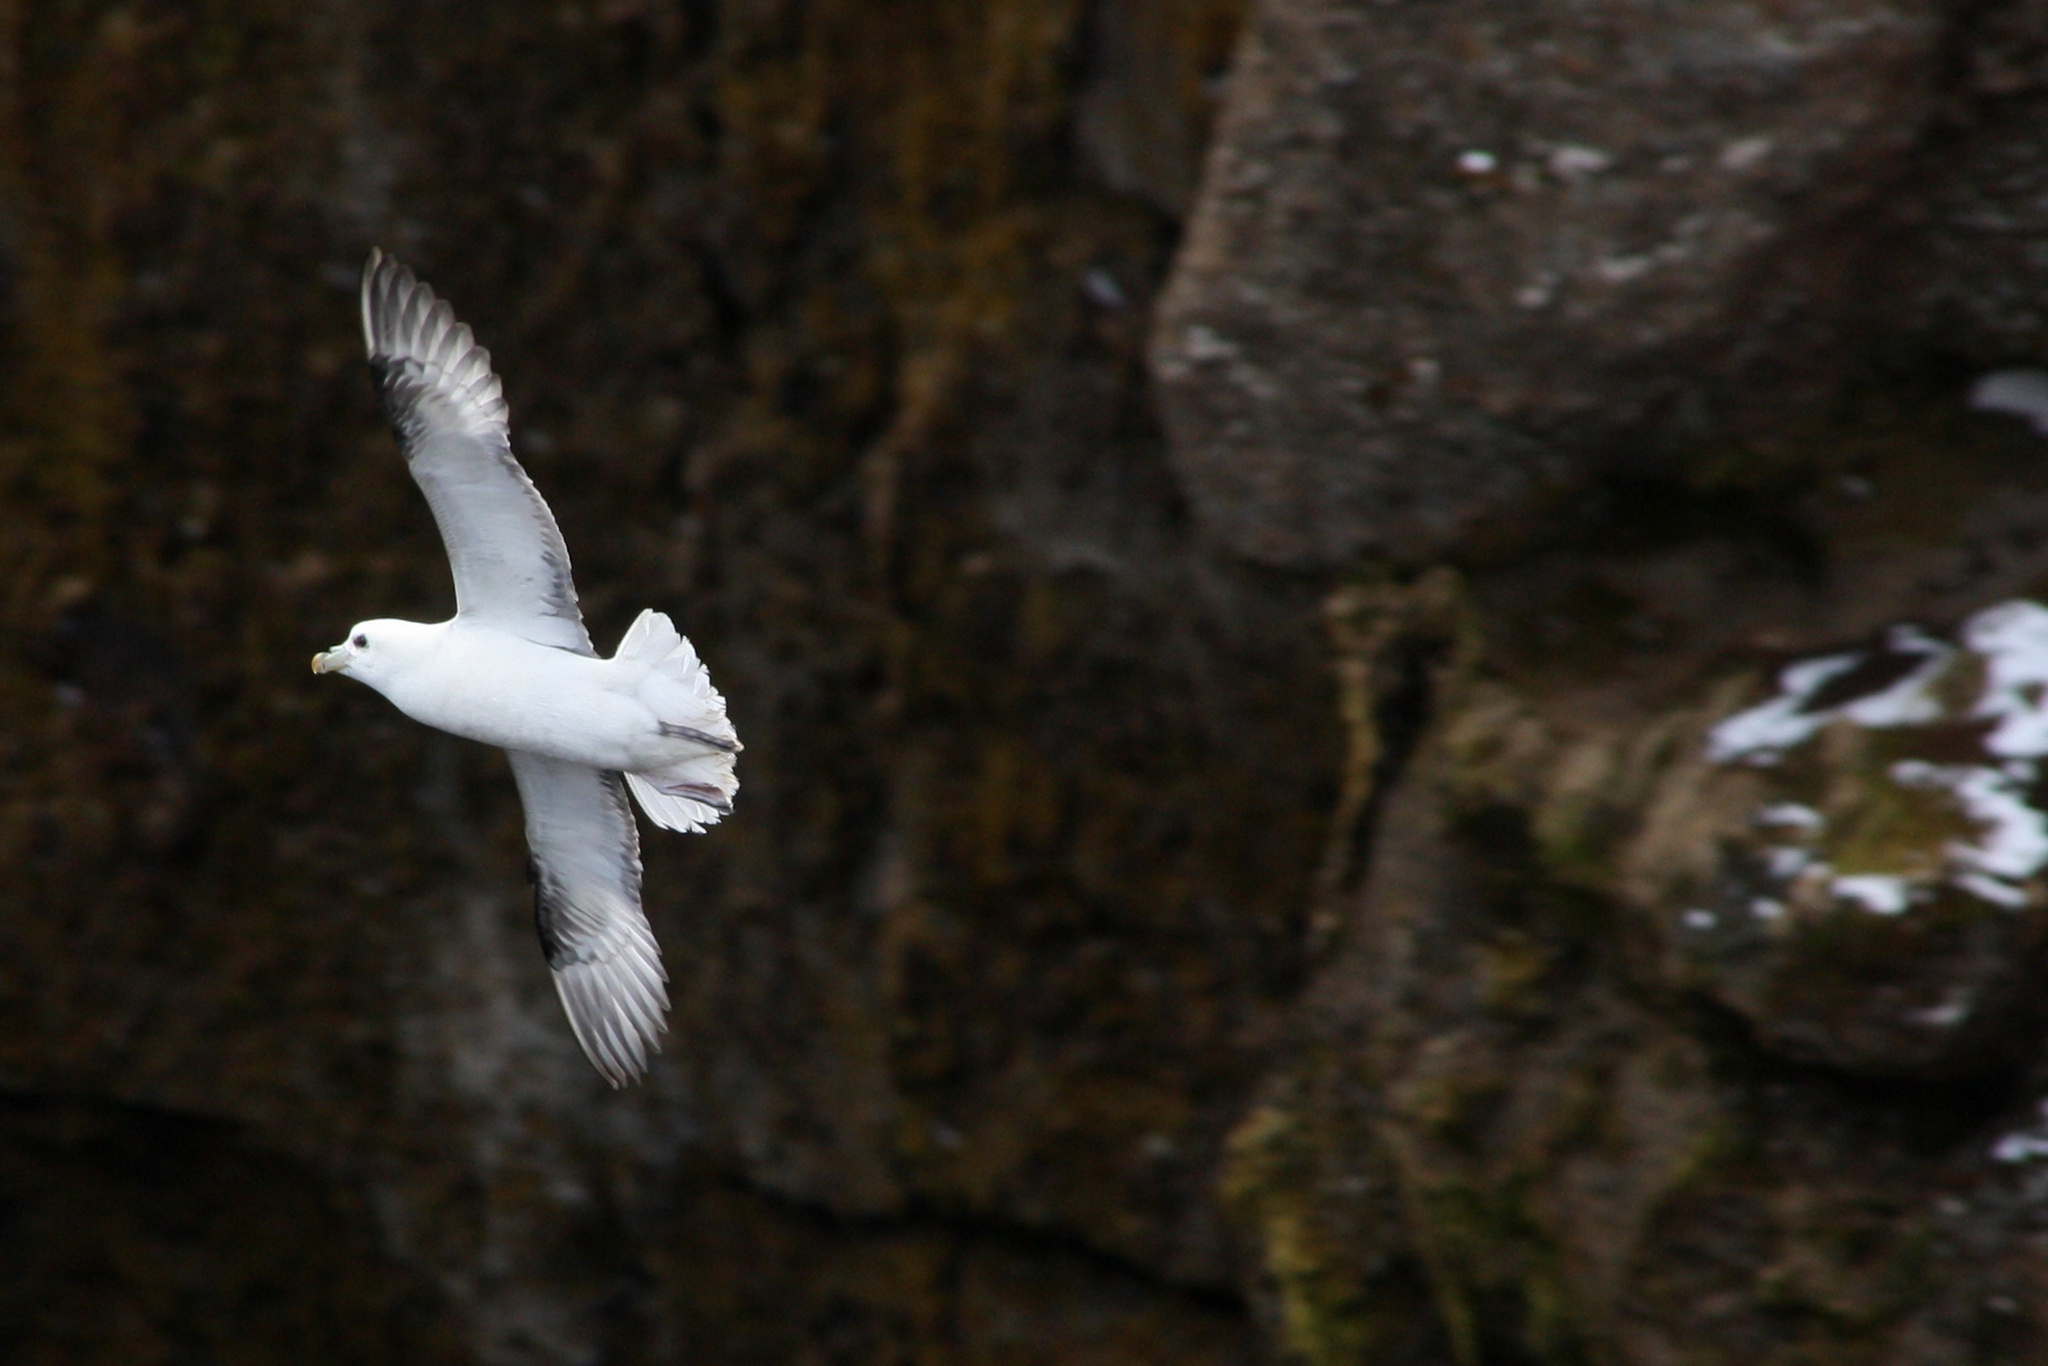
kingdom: Animalia
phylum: Chordata
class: Aves
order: Procellariiformes
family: Procellariidae
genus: Fulmarus
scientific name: Fulmarus glacialis
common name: Northern fulmar
